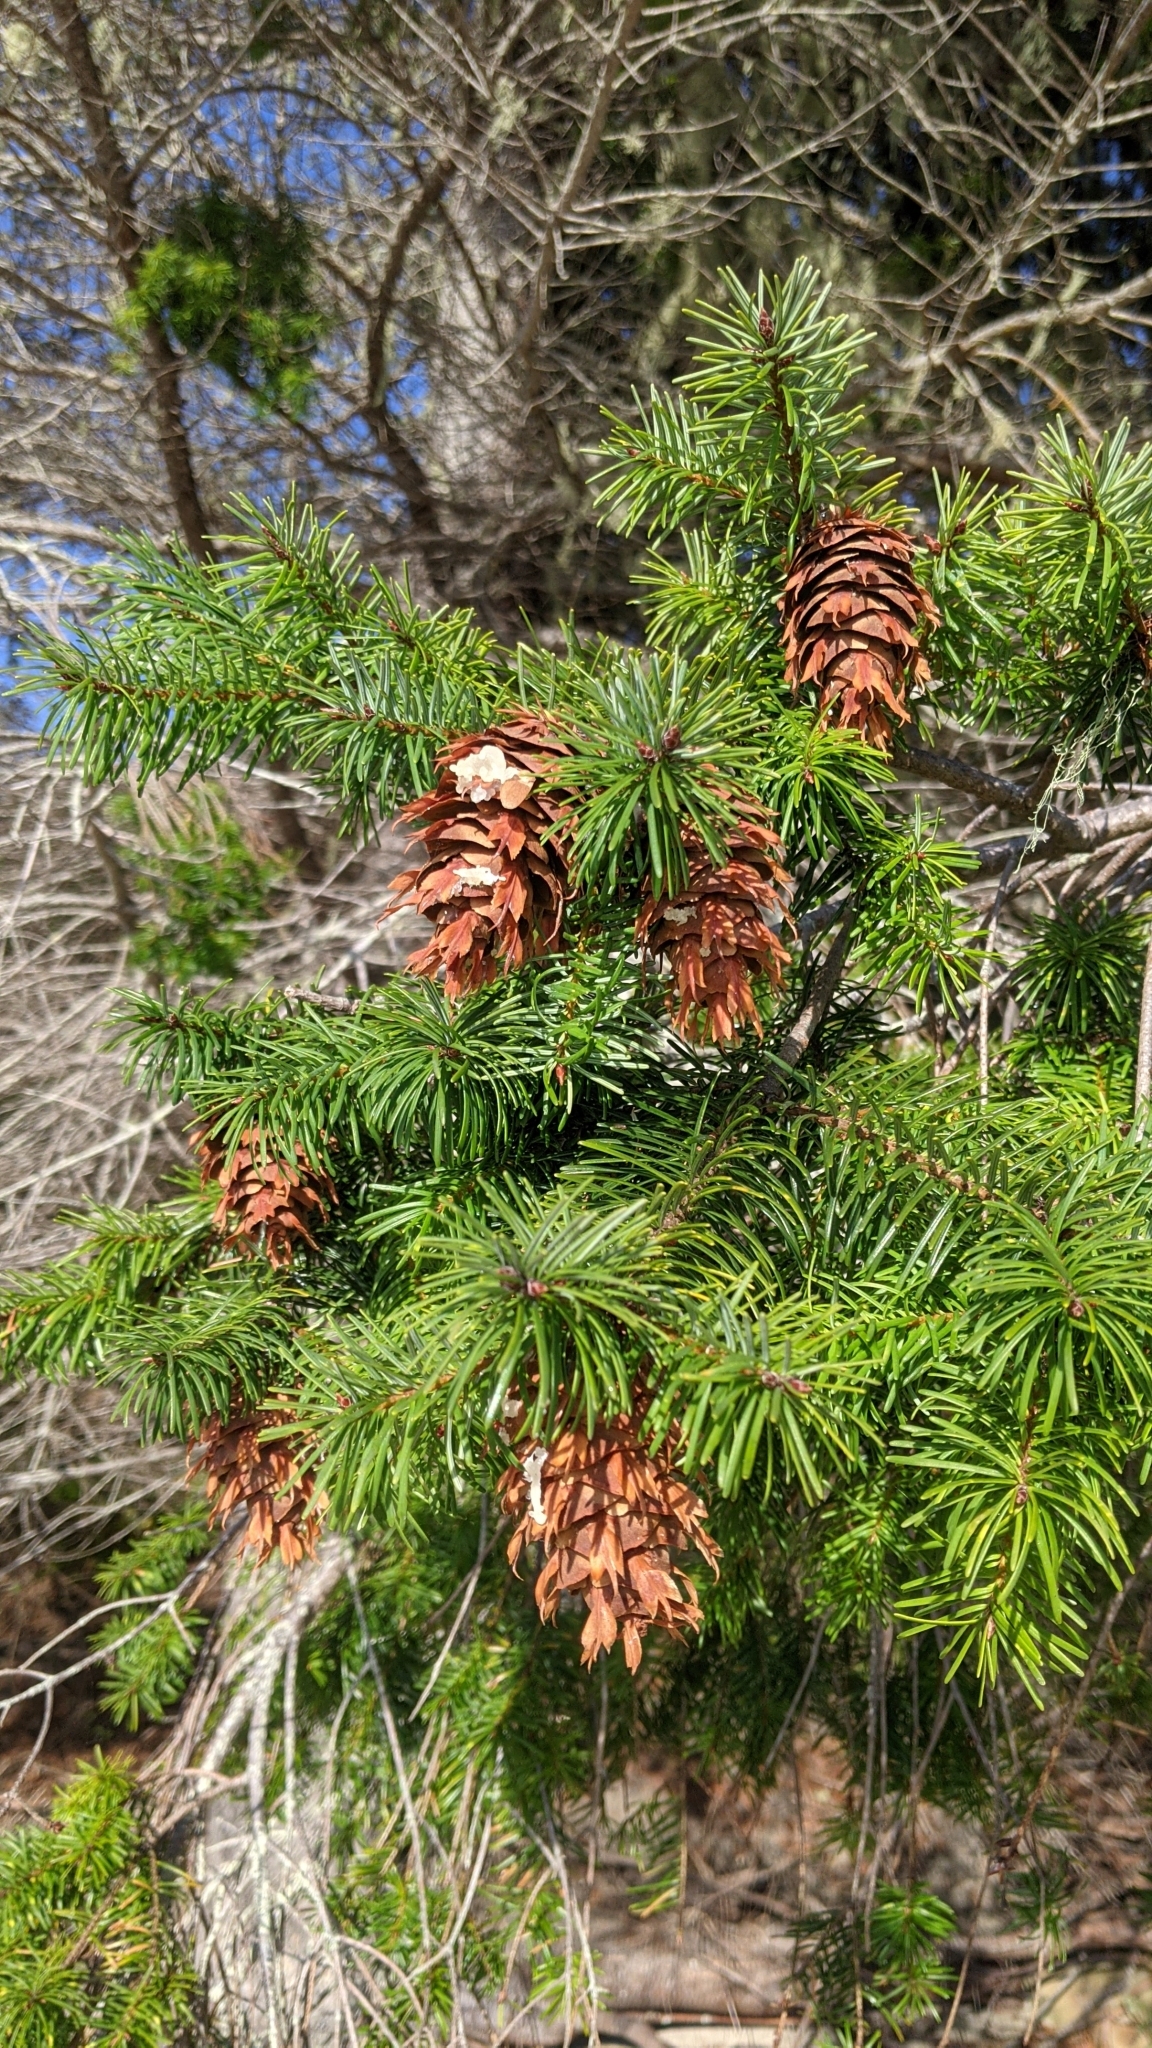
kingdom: Plantae
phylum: Tracheophyta
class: Pinopsida
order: Pinales
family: Pinaceae
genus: Pseudotsuga
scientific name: Pseudotsuga menziesii
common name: Douglas fir
